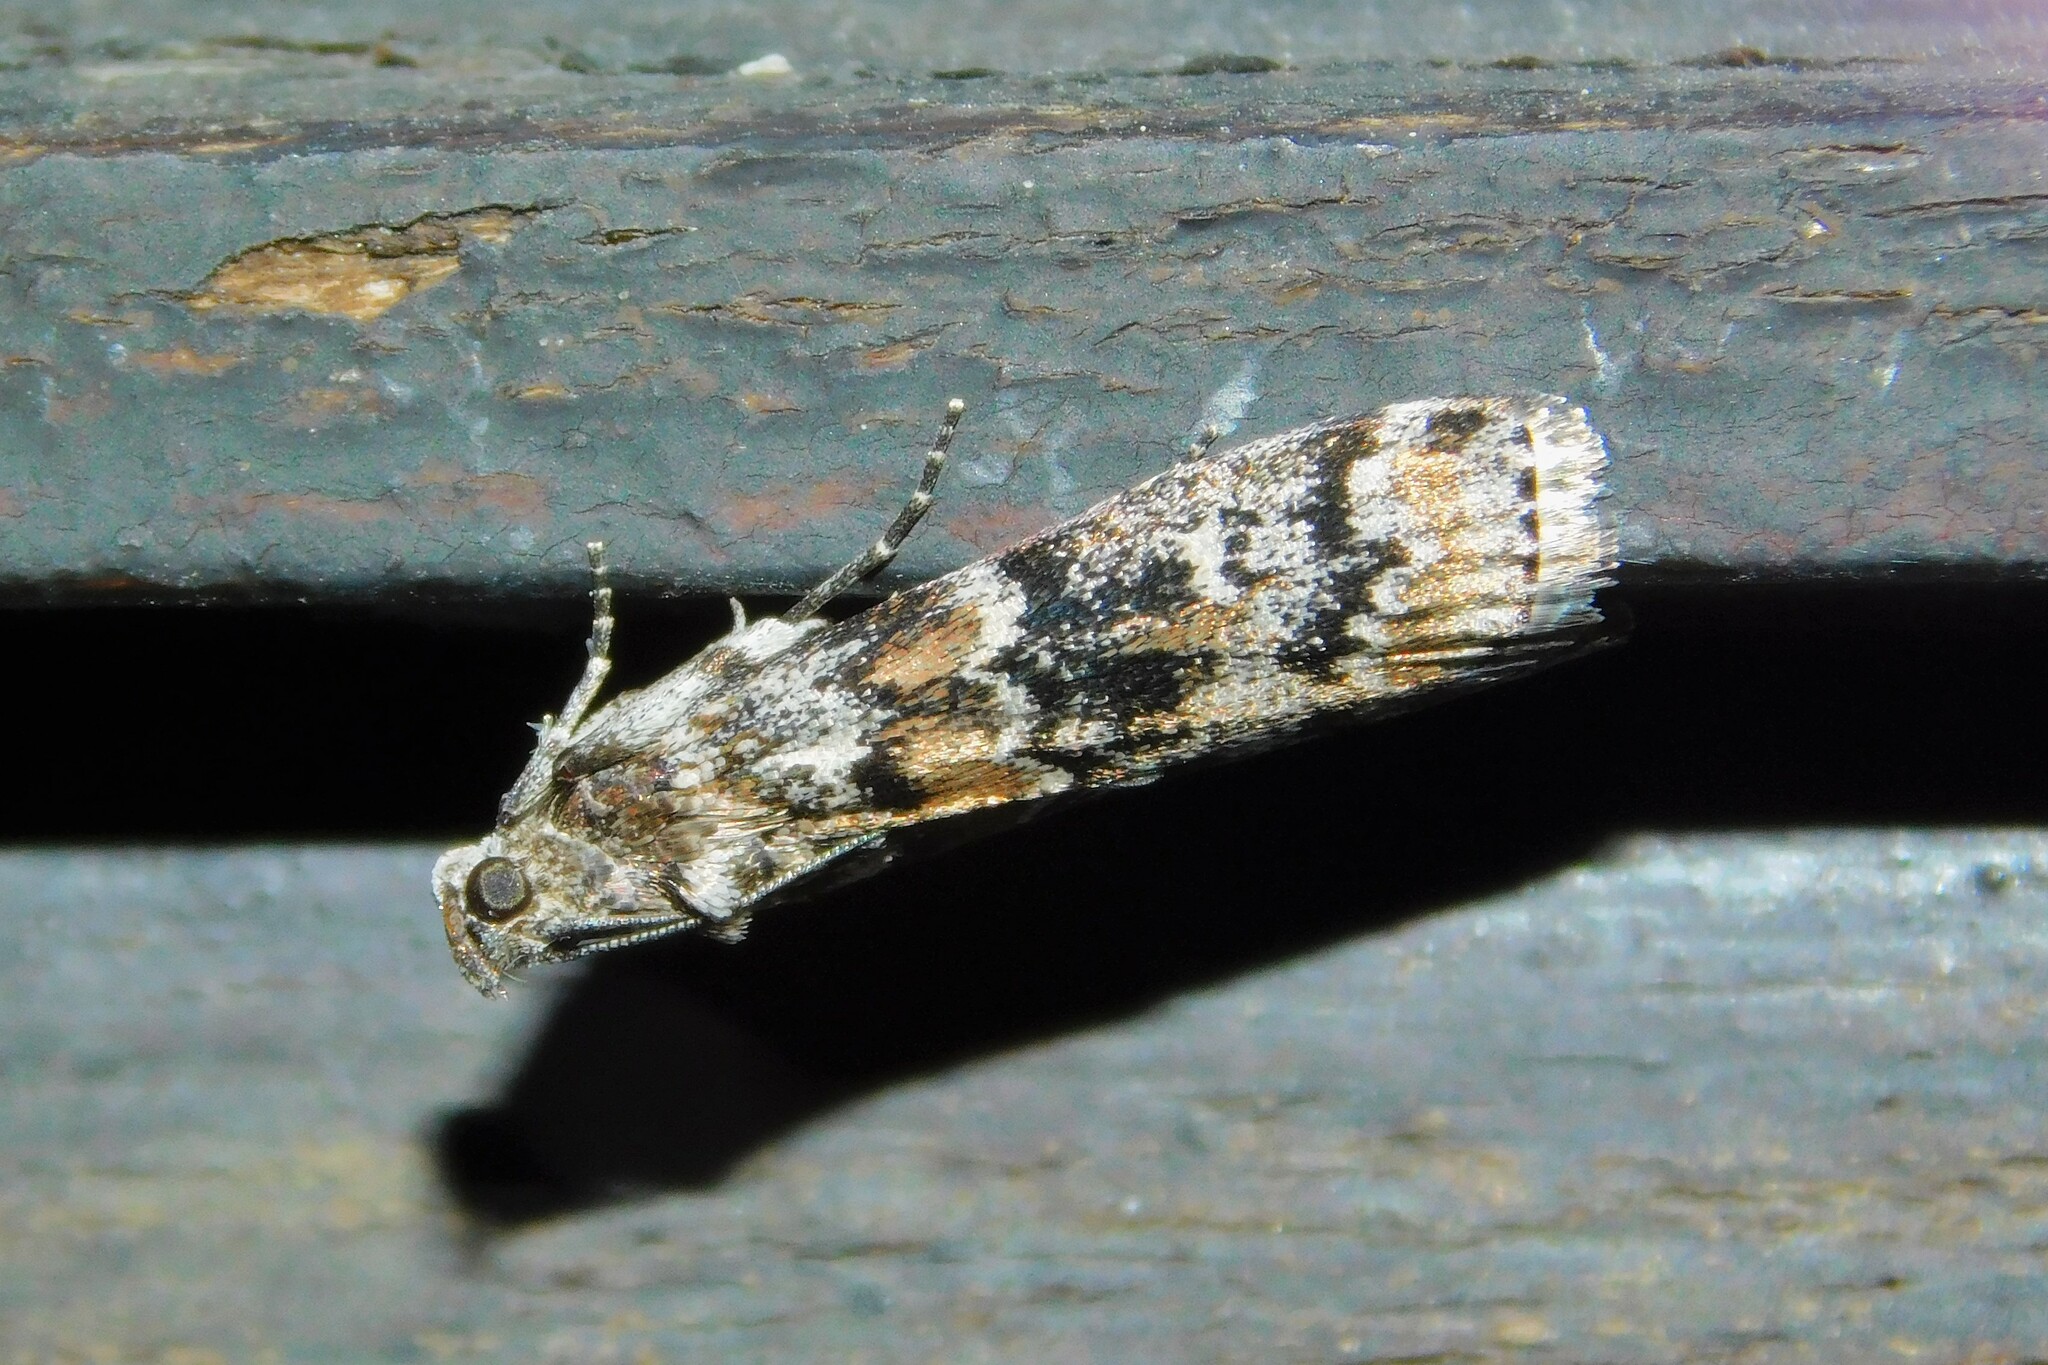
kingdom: Animalia
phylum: Arthropoda
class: Insecta
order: Lepidoptera
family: Pyralidae
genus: Dioryctria
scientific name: Dioryctria abietella
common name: Dark pine knot-horn
